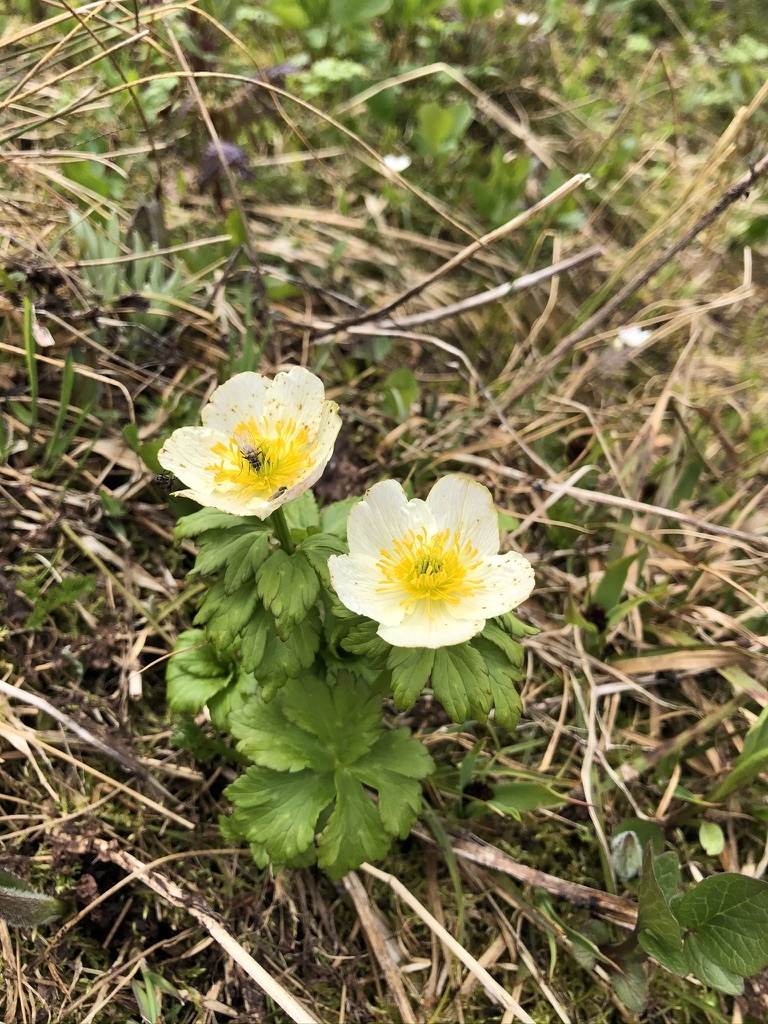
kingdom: Plantae
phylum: Tracheophyta
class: Magnoliopsida
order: Ranunculales
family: Ranunculaceae
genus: Trollius
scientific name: Trollius laxus
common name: American globeflower
